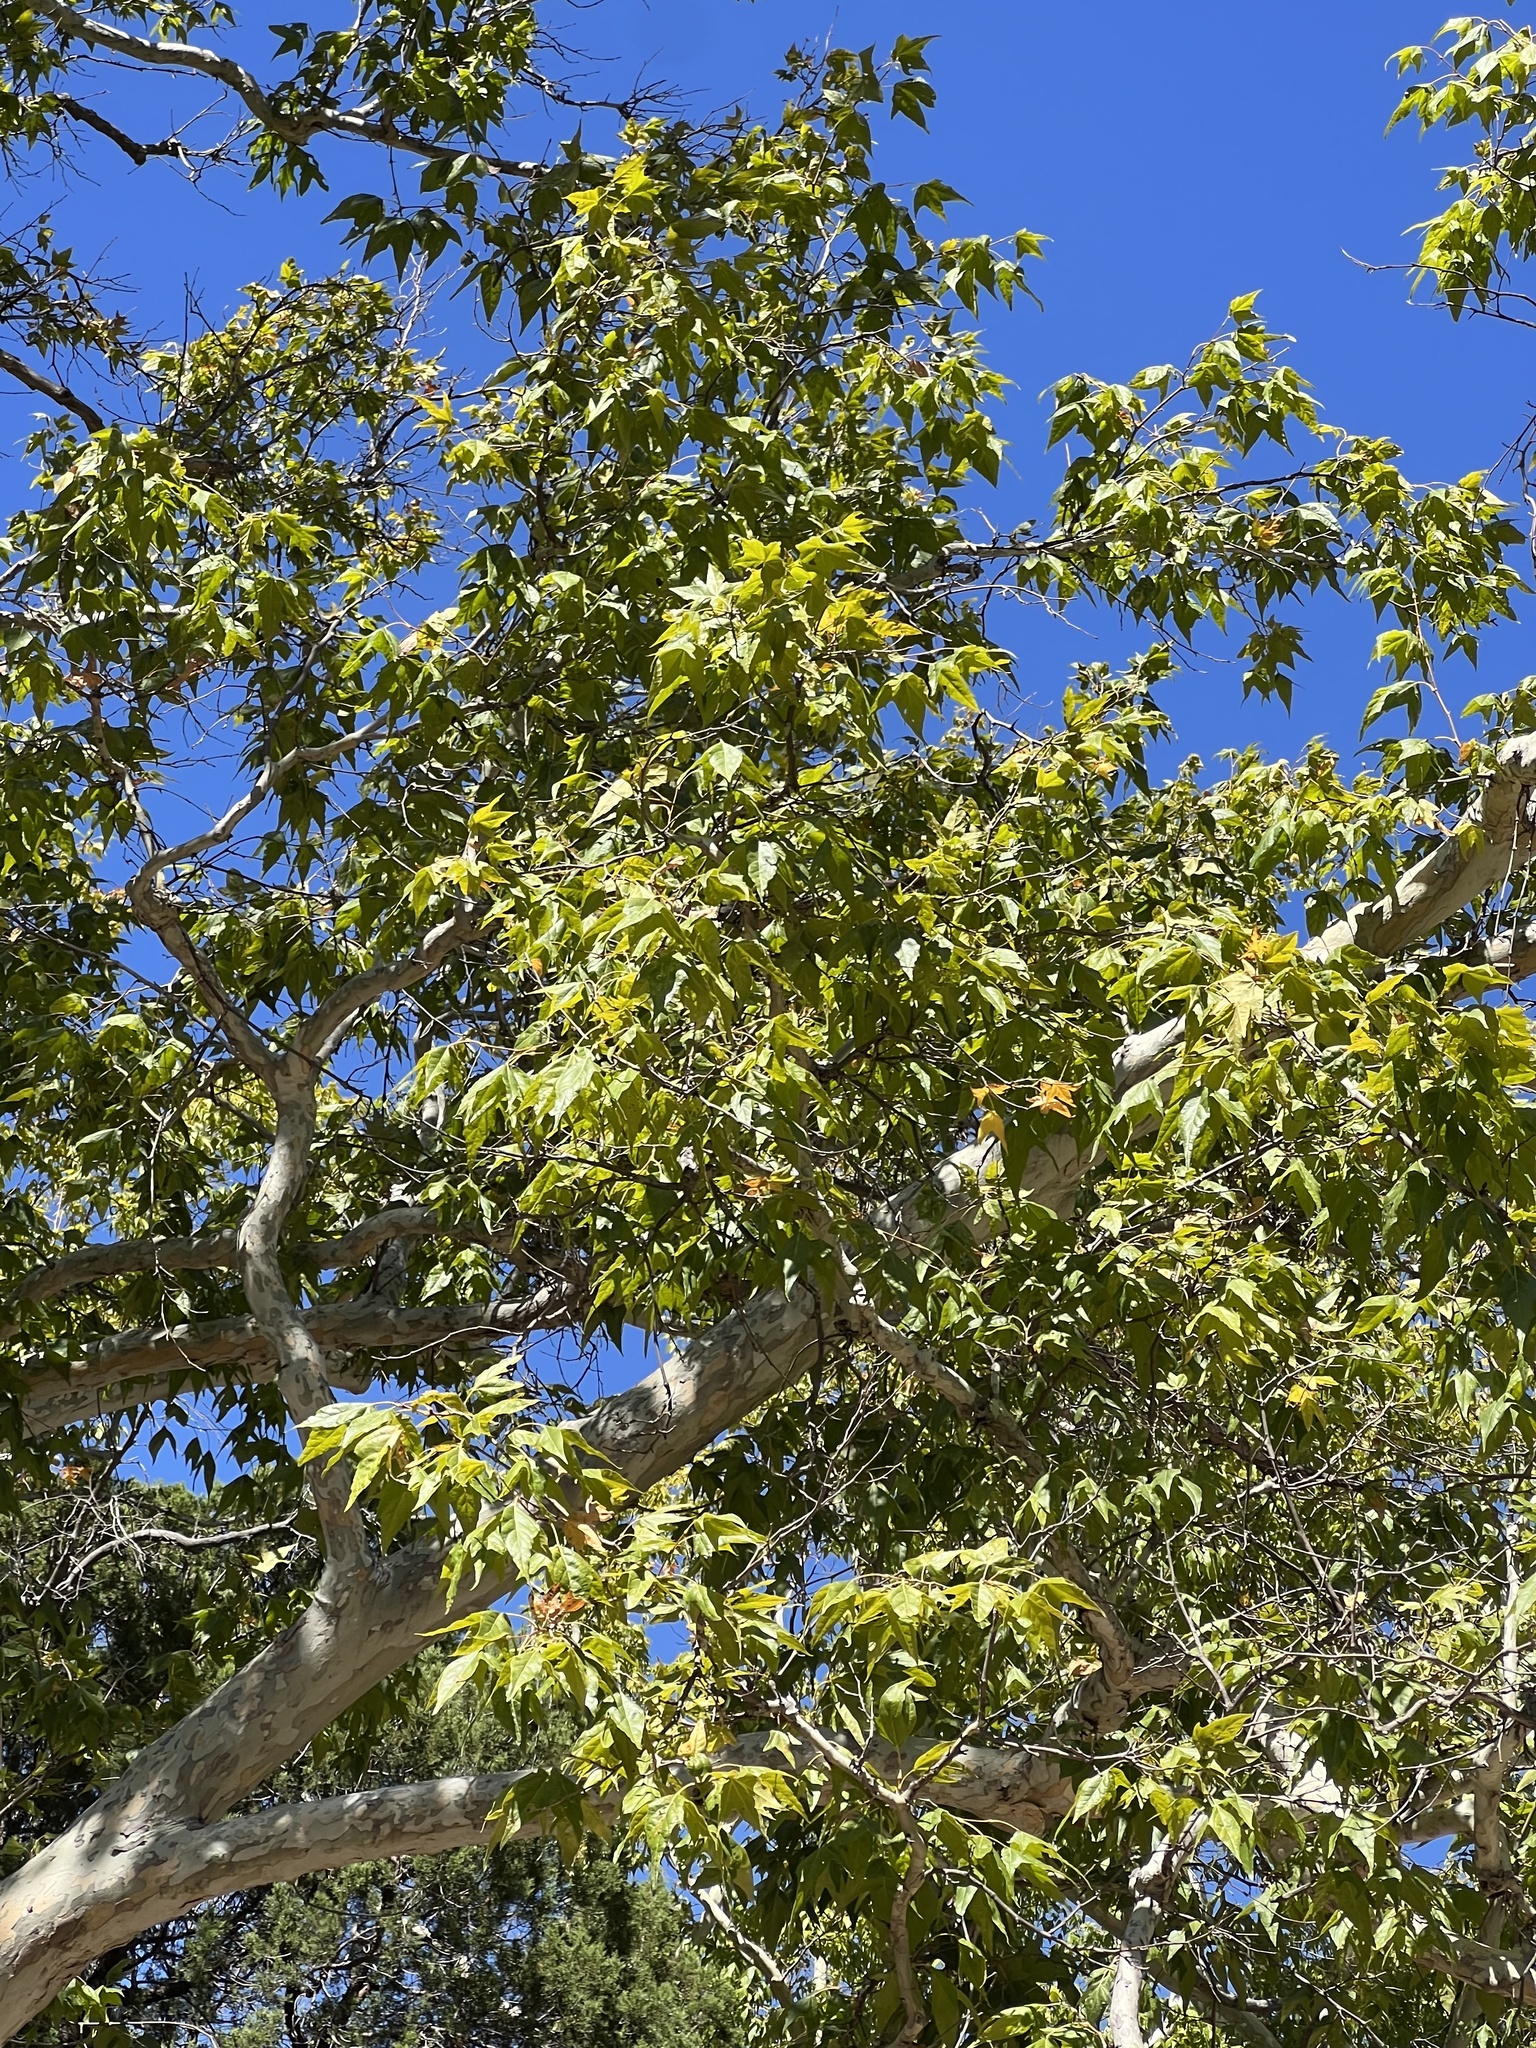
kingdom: Plantae
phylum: Tracheophyta
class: Magnoliopsida
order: Proteales
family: Platanaceae
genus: Platanus
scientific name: Platanus wrightii
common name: Arizona sycamore
